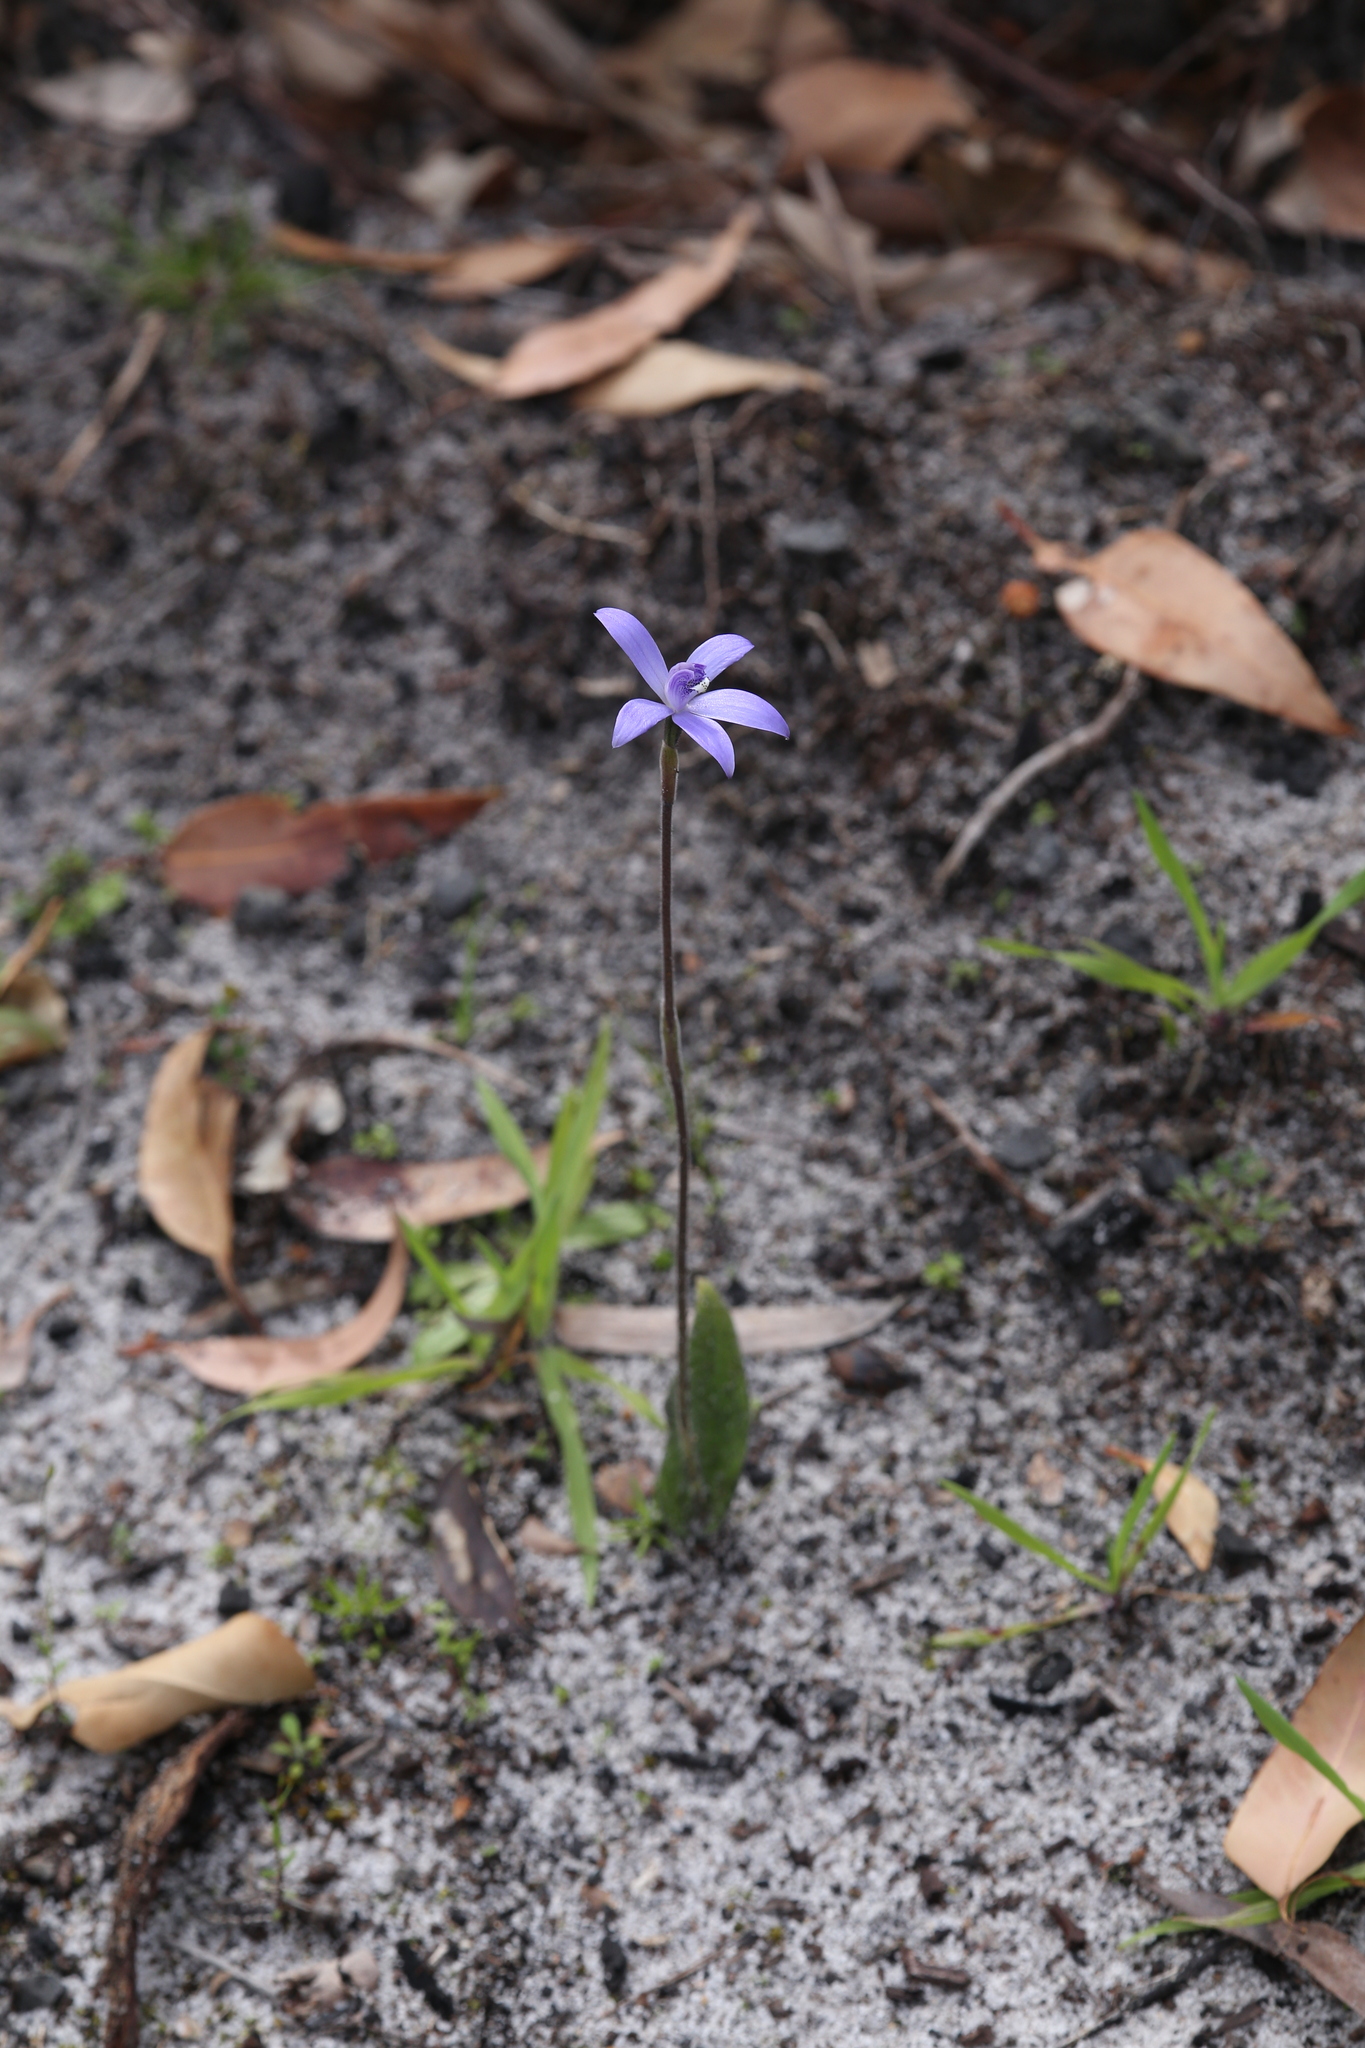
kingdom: Plantae
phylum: Tracheophyta
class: Liliopsida
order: Asparagales
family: Orchidaceae
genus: Caladenia
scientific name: Caladenia sericea
